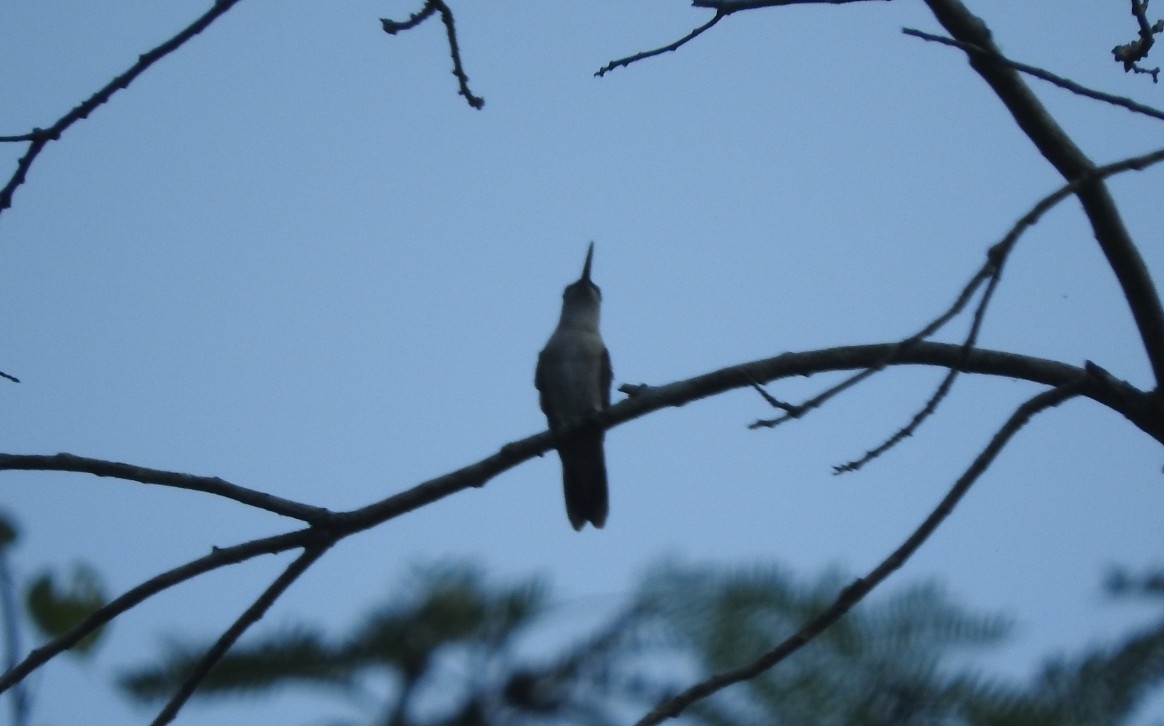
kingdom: Animalia
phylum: Chordata
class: Aves
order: Apodiformes
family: Trochilidae
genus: Pampa
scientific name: Pampa curvipennis
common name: Curve-winged sabrewing
